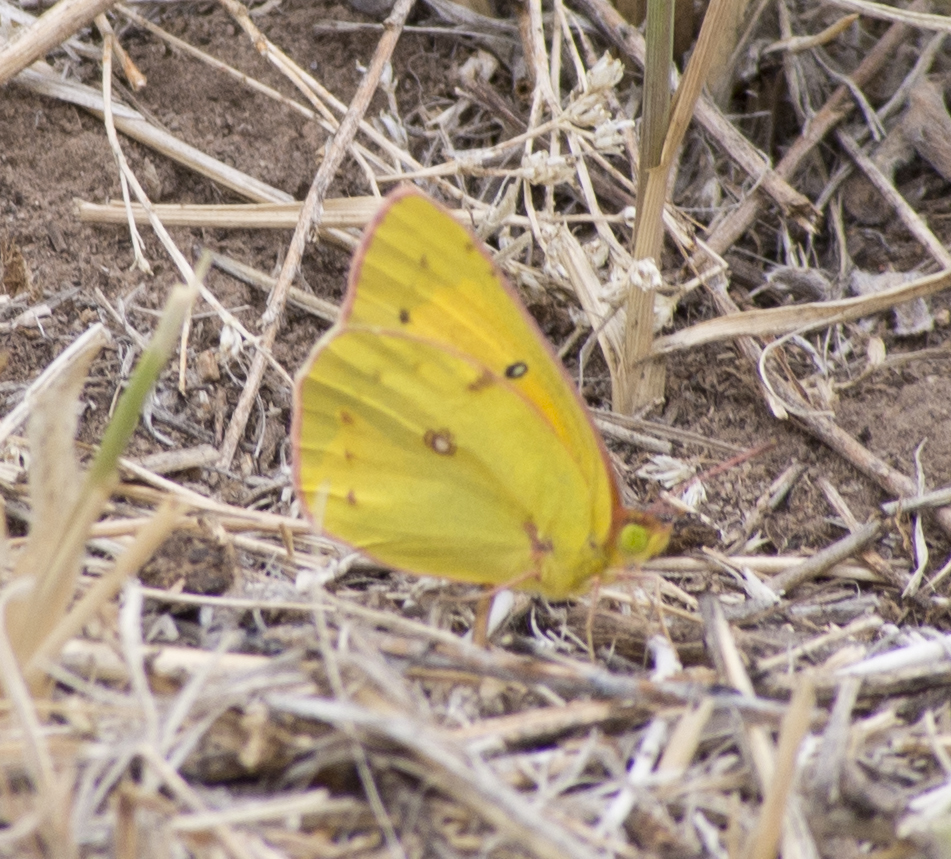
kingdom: Animalia
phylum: Arthropoda
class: Insecta
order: Lepidoptera
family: Pieridae
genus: Colias
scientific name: Colias eurytheme
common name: Alfalfa butterfly
